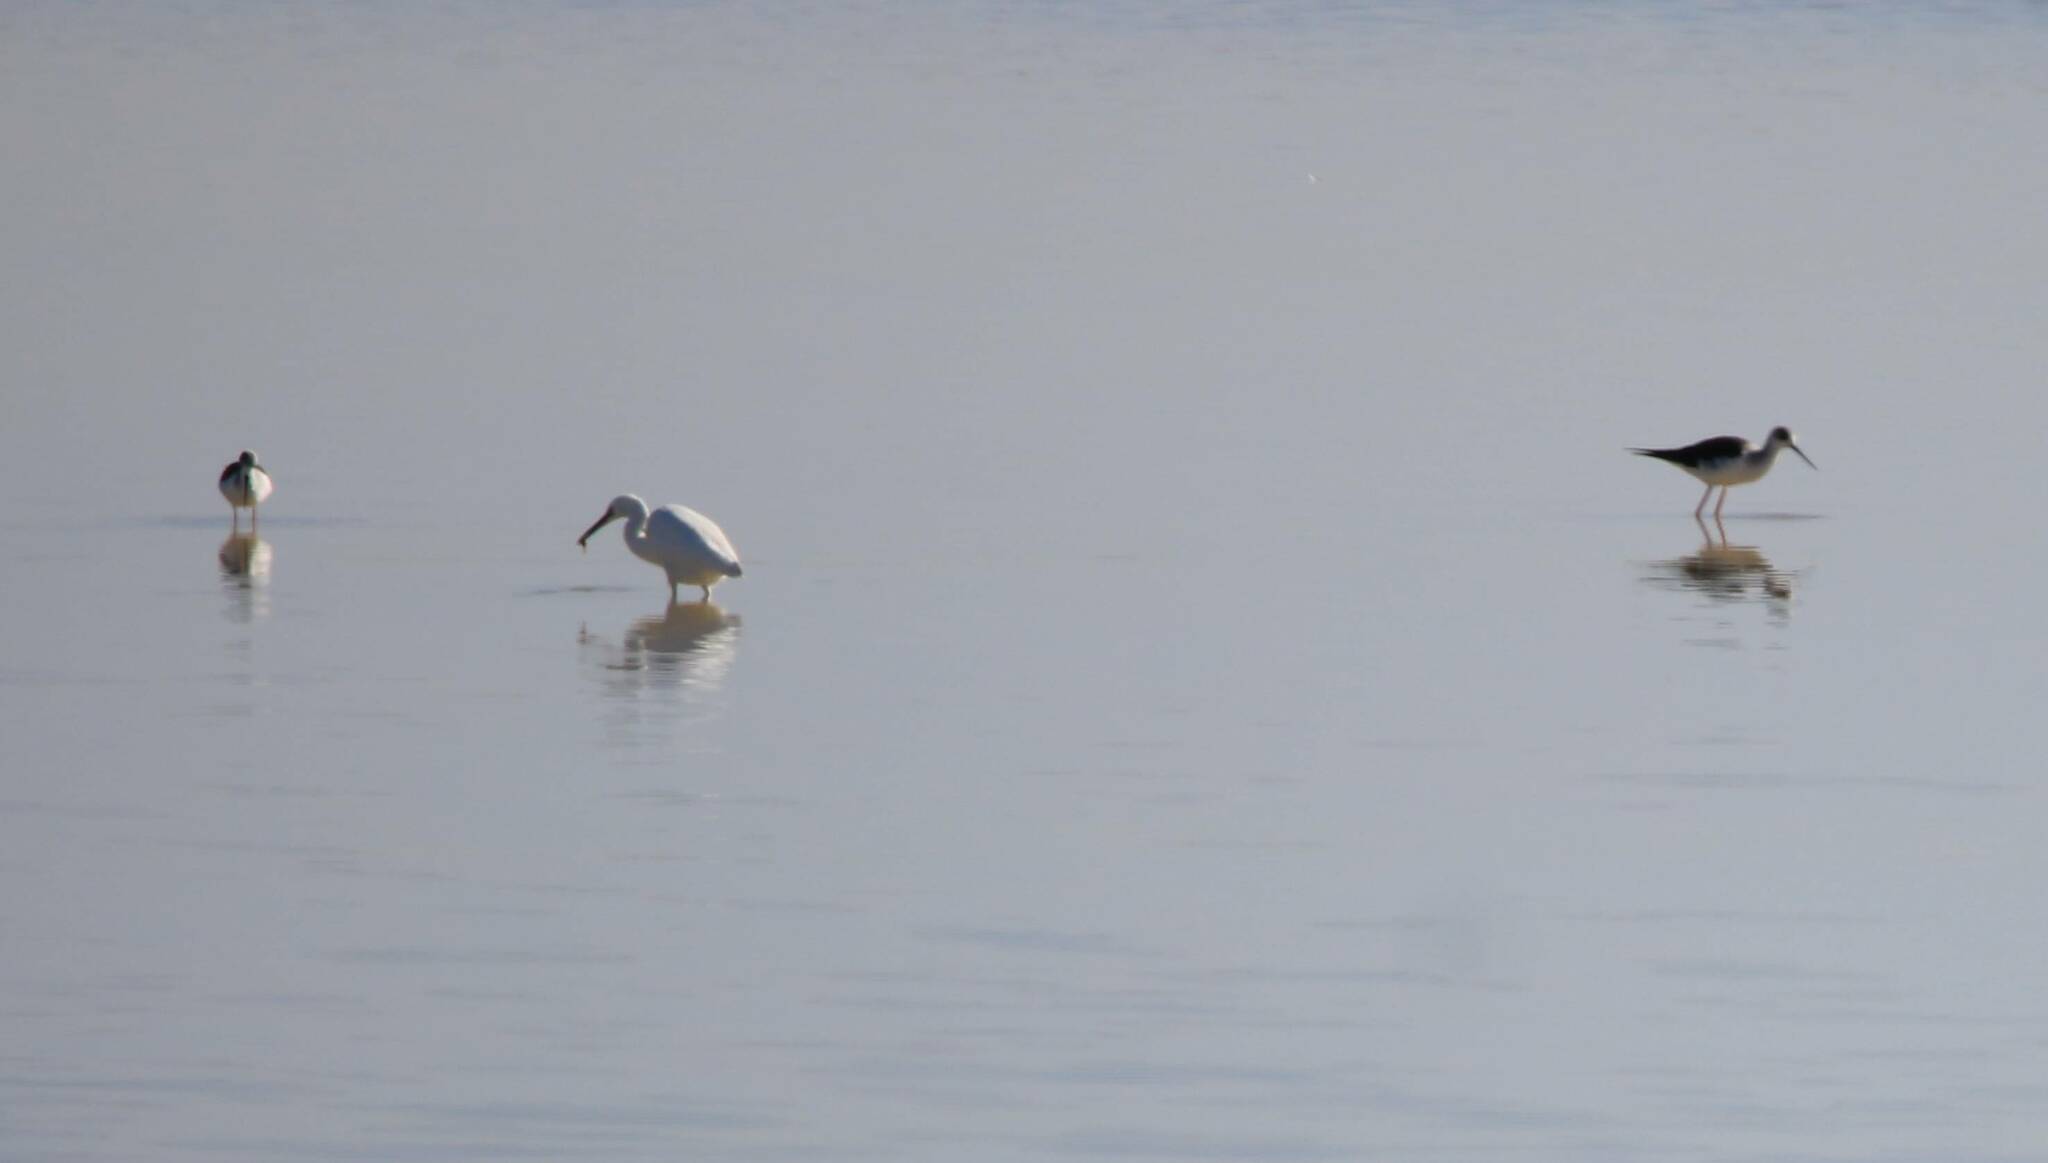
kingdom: Animalia
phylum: Chordata
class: Aves
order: Pelecaniformes
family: Ardeidae
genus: Egretta
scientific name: Egretta garzetta
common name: Little egret
